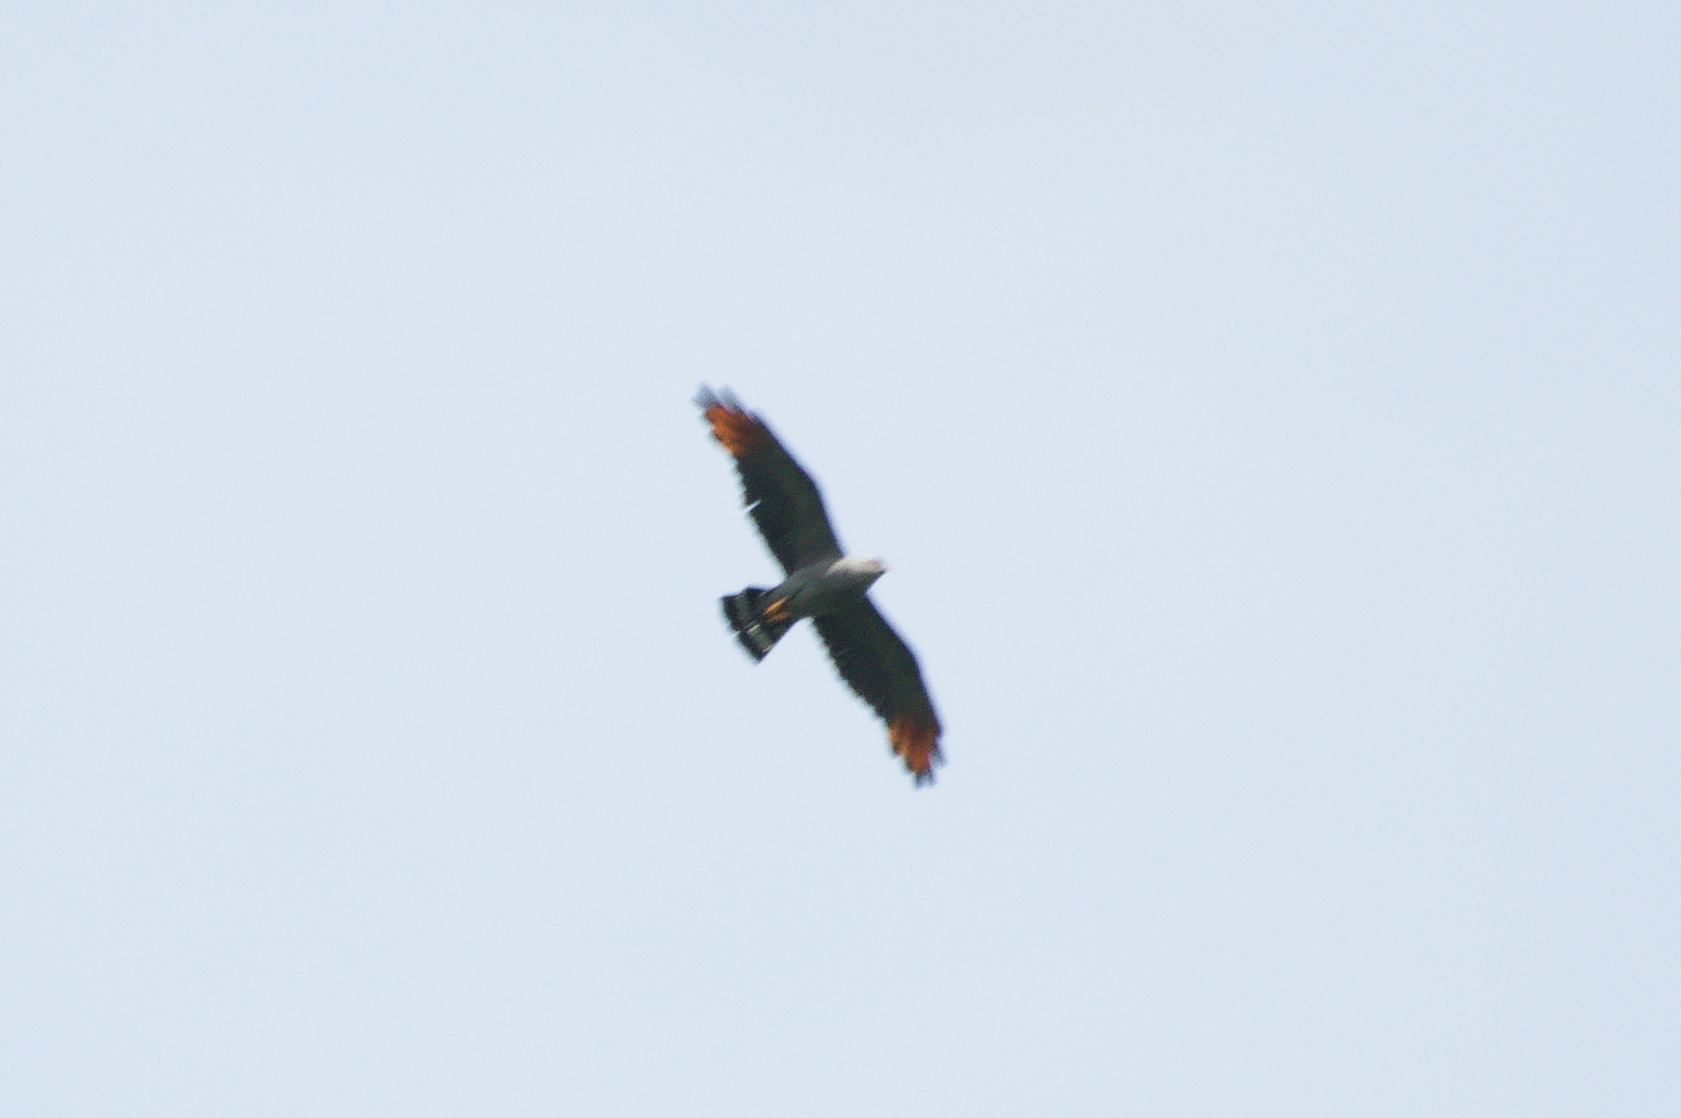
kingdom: Animalia
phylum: Chordata
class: Aves
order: Accipitriformes
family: Accipitridae
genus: Ictinia
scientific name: Ictinia plumbea
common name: Plumbeous kite
